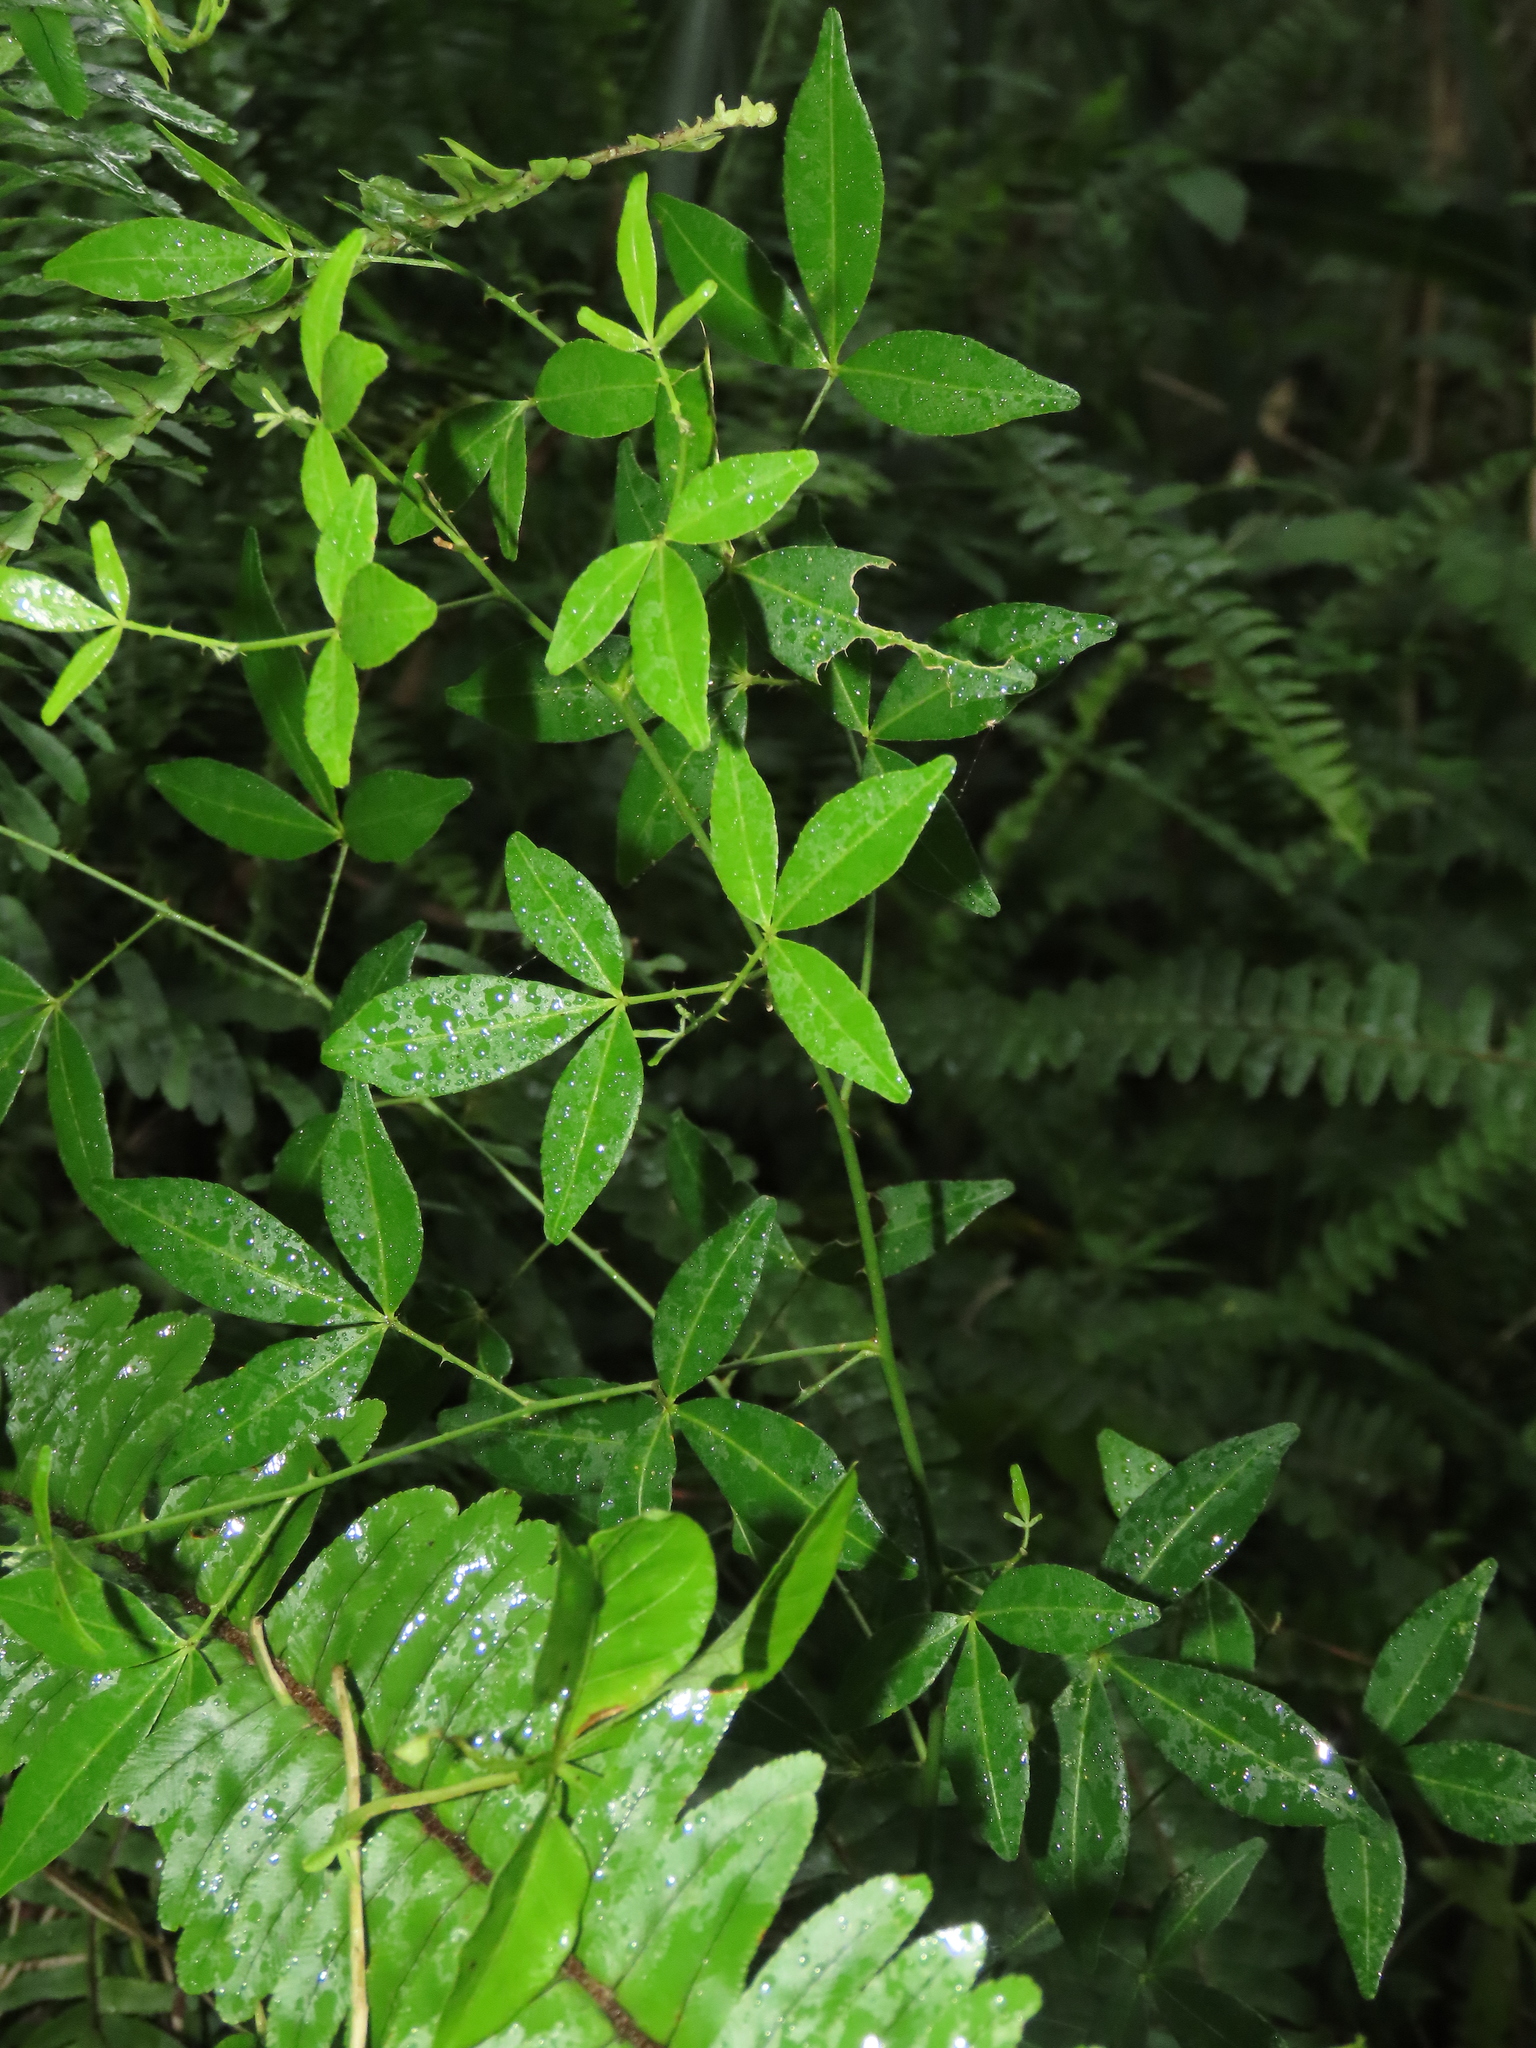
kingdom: Plantae
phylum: Tracheophyta
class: Magnoliopsida
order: Sapindales
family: Rutaceae
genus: Zanthoxylum
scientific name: Zanthoxylum asiaticum
